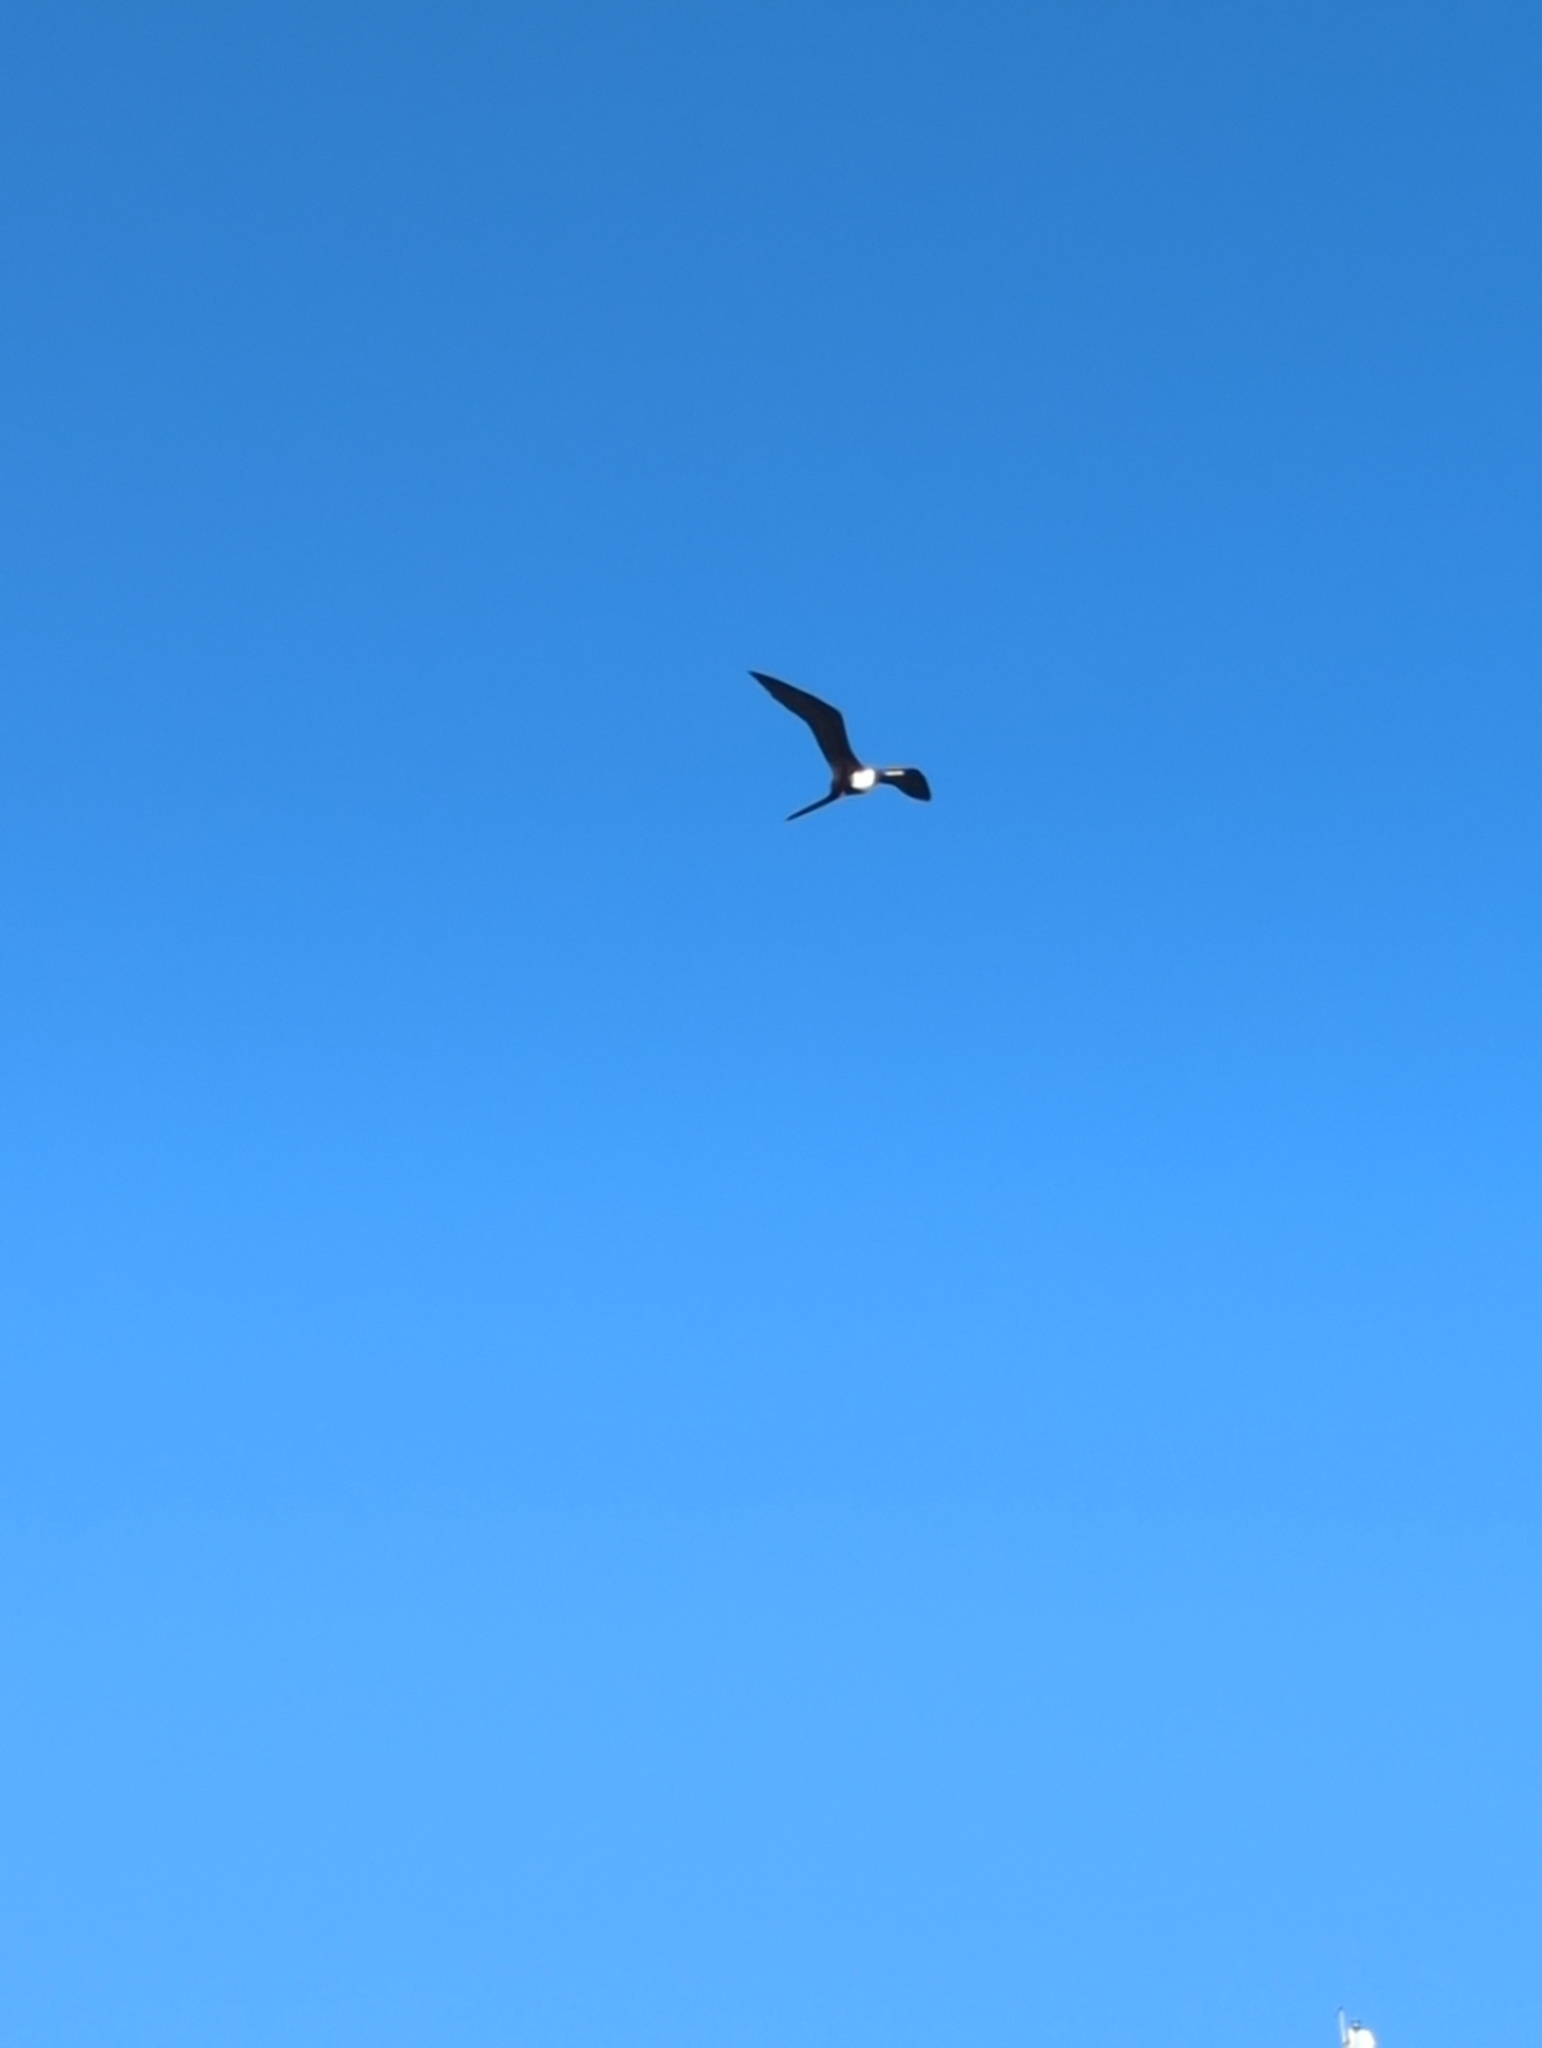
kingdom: Animalia
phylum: Chordata
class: Aves
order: Suliformes
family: Fregatidae
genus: Fregata
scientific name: Fregata magnificens
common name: Magnificent frigatebird
